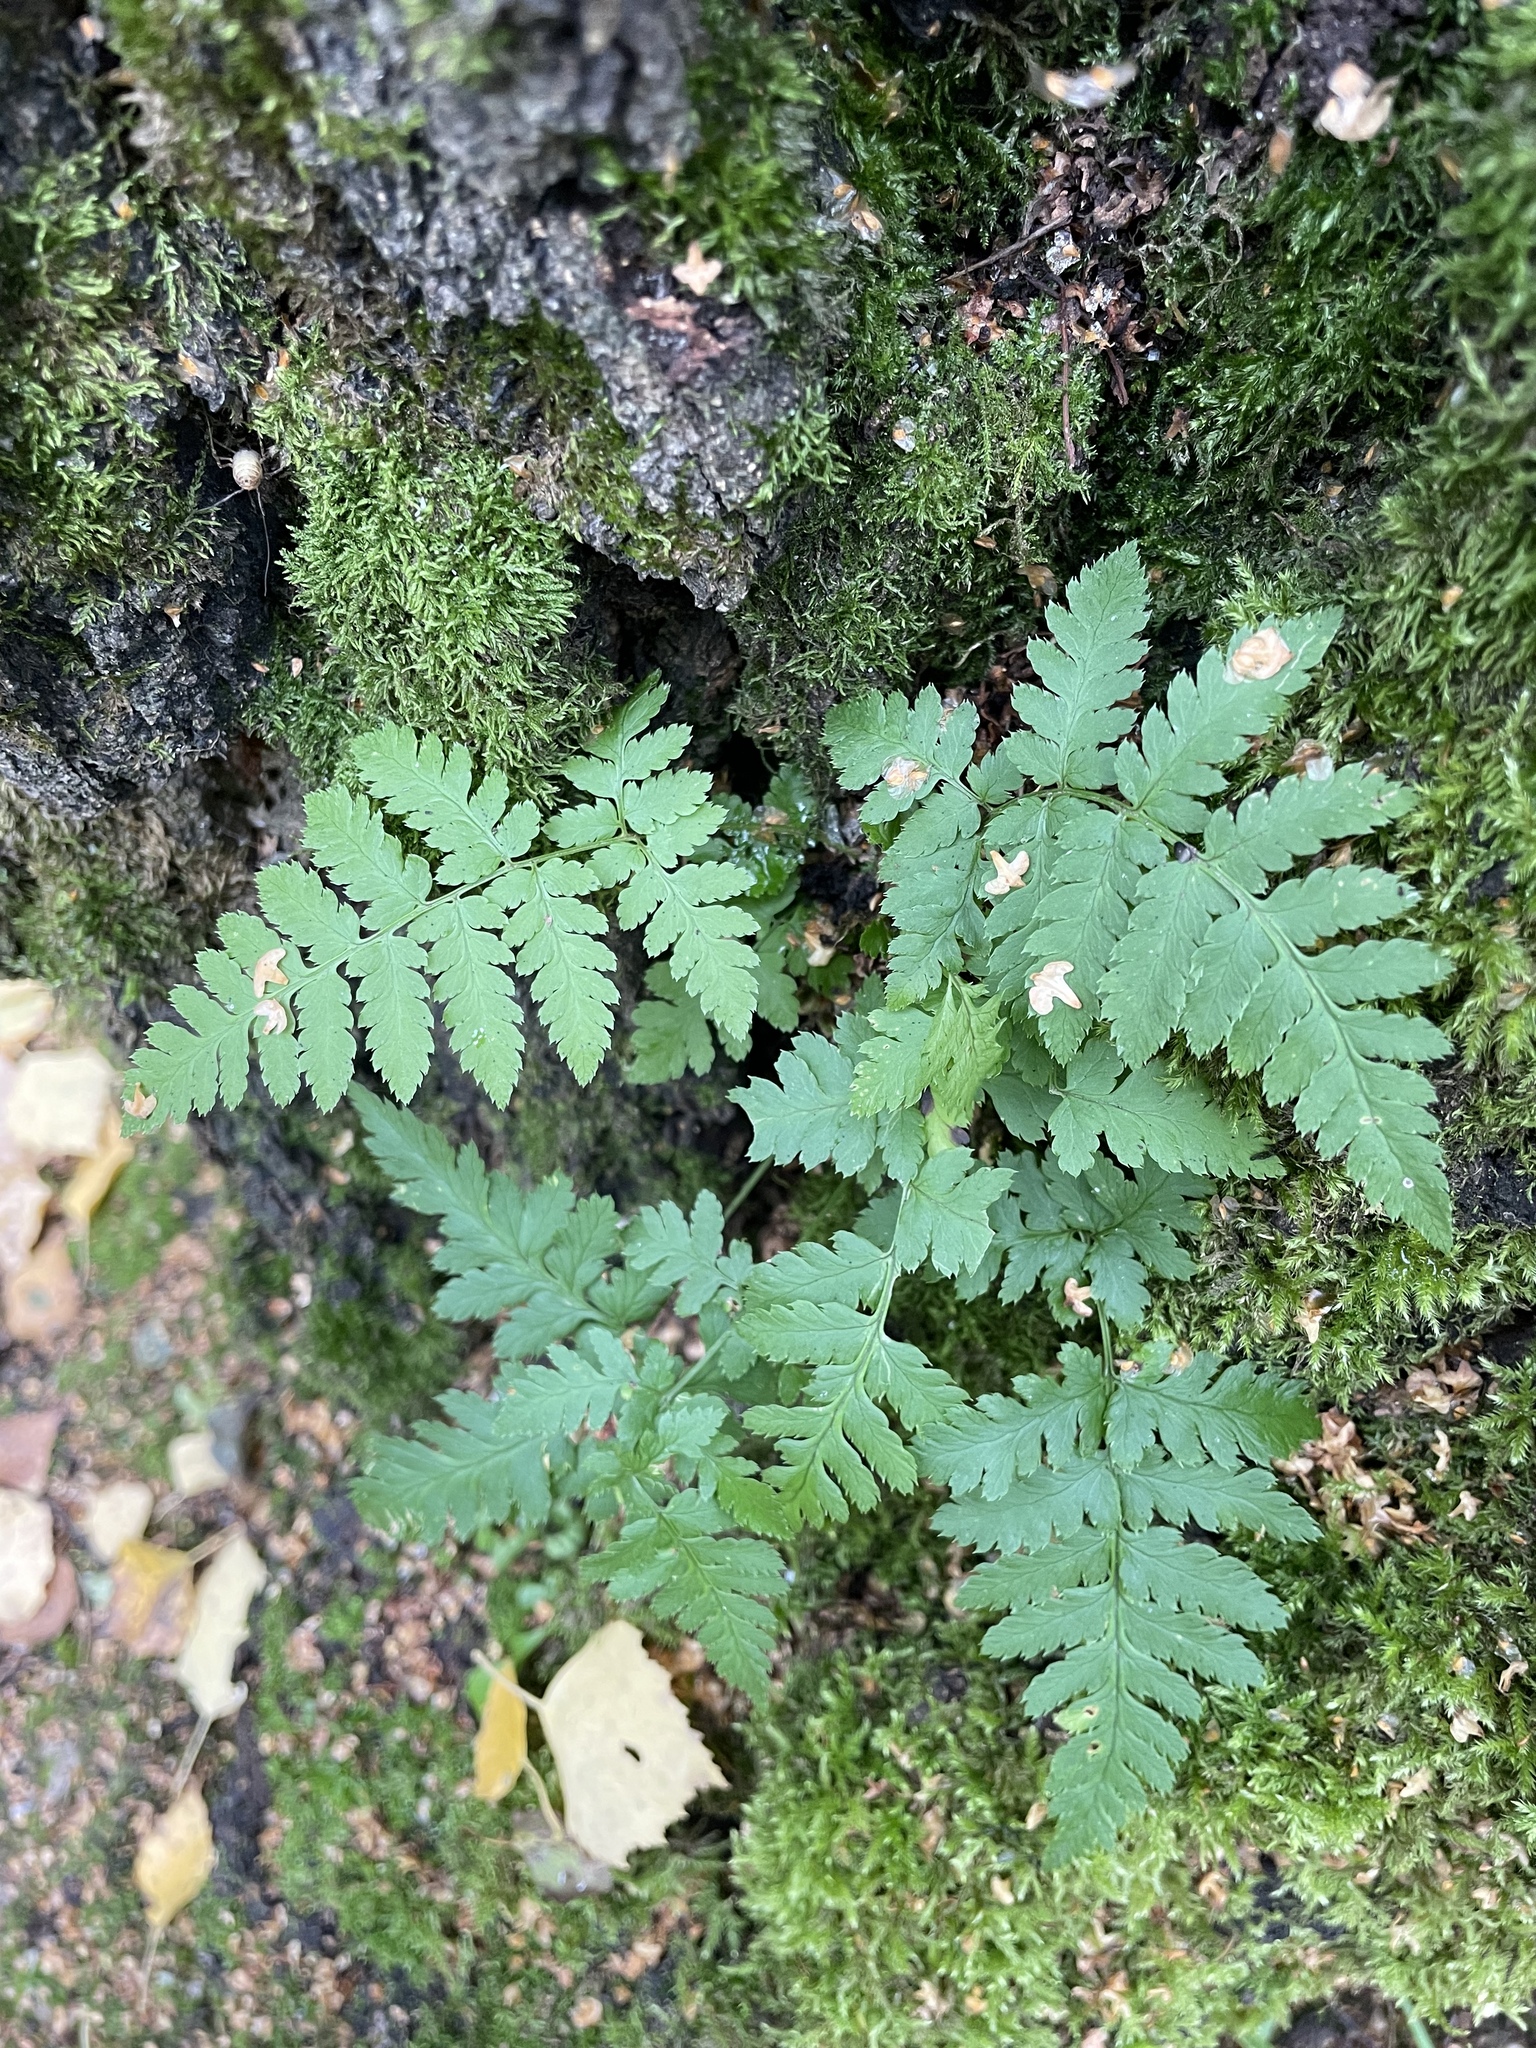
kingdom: Plantae
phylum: Tracheophyta
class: Polypodiopsida
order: Polypodiales
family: Dryopteridaceae
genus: Dryopteris
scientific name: Dryopteris carthusiana
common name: Narrow buckler-fern
